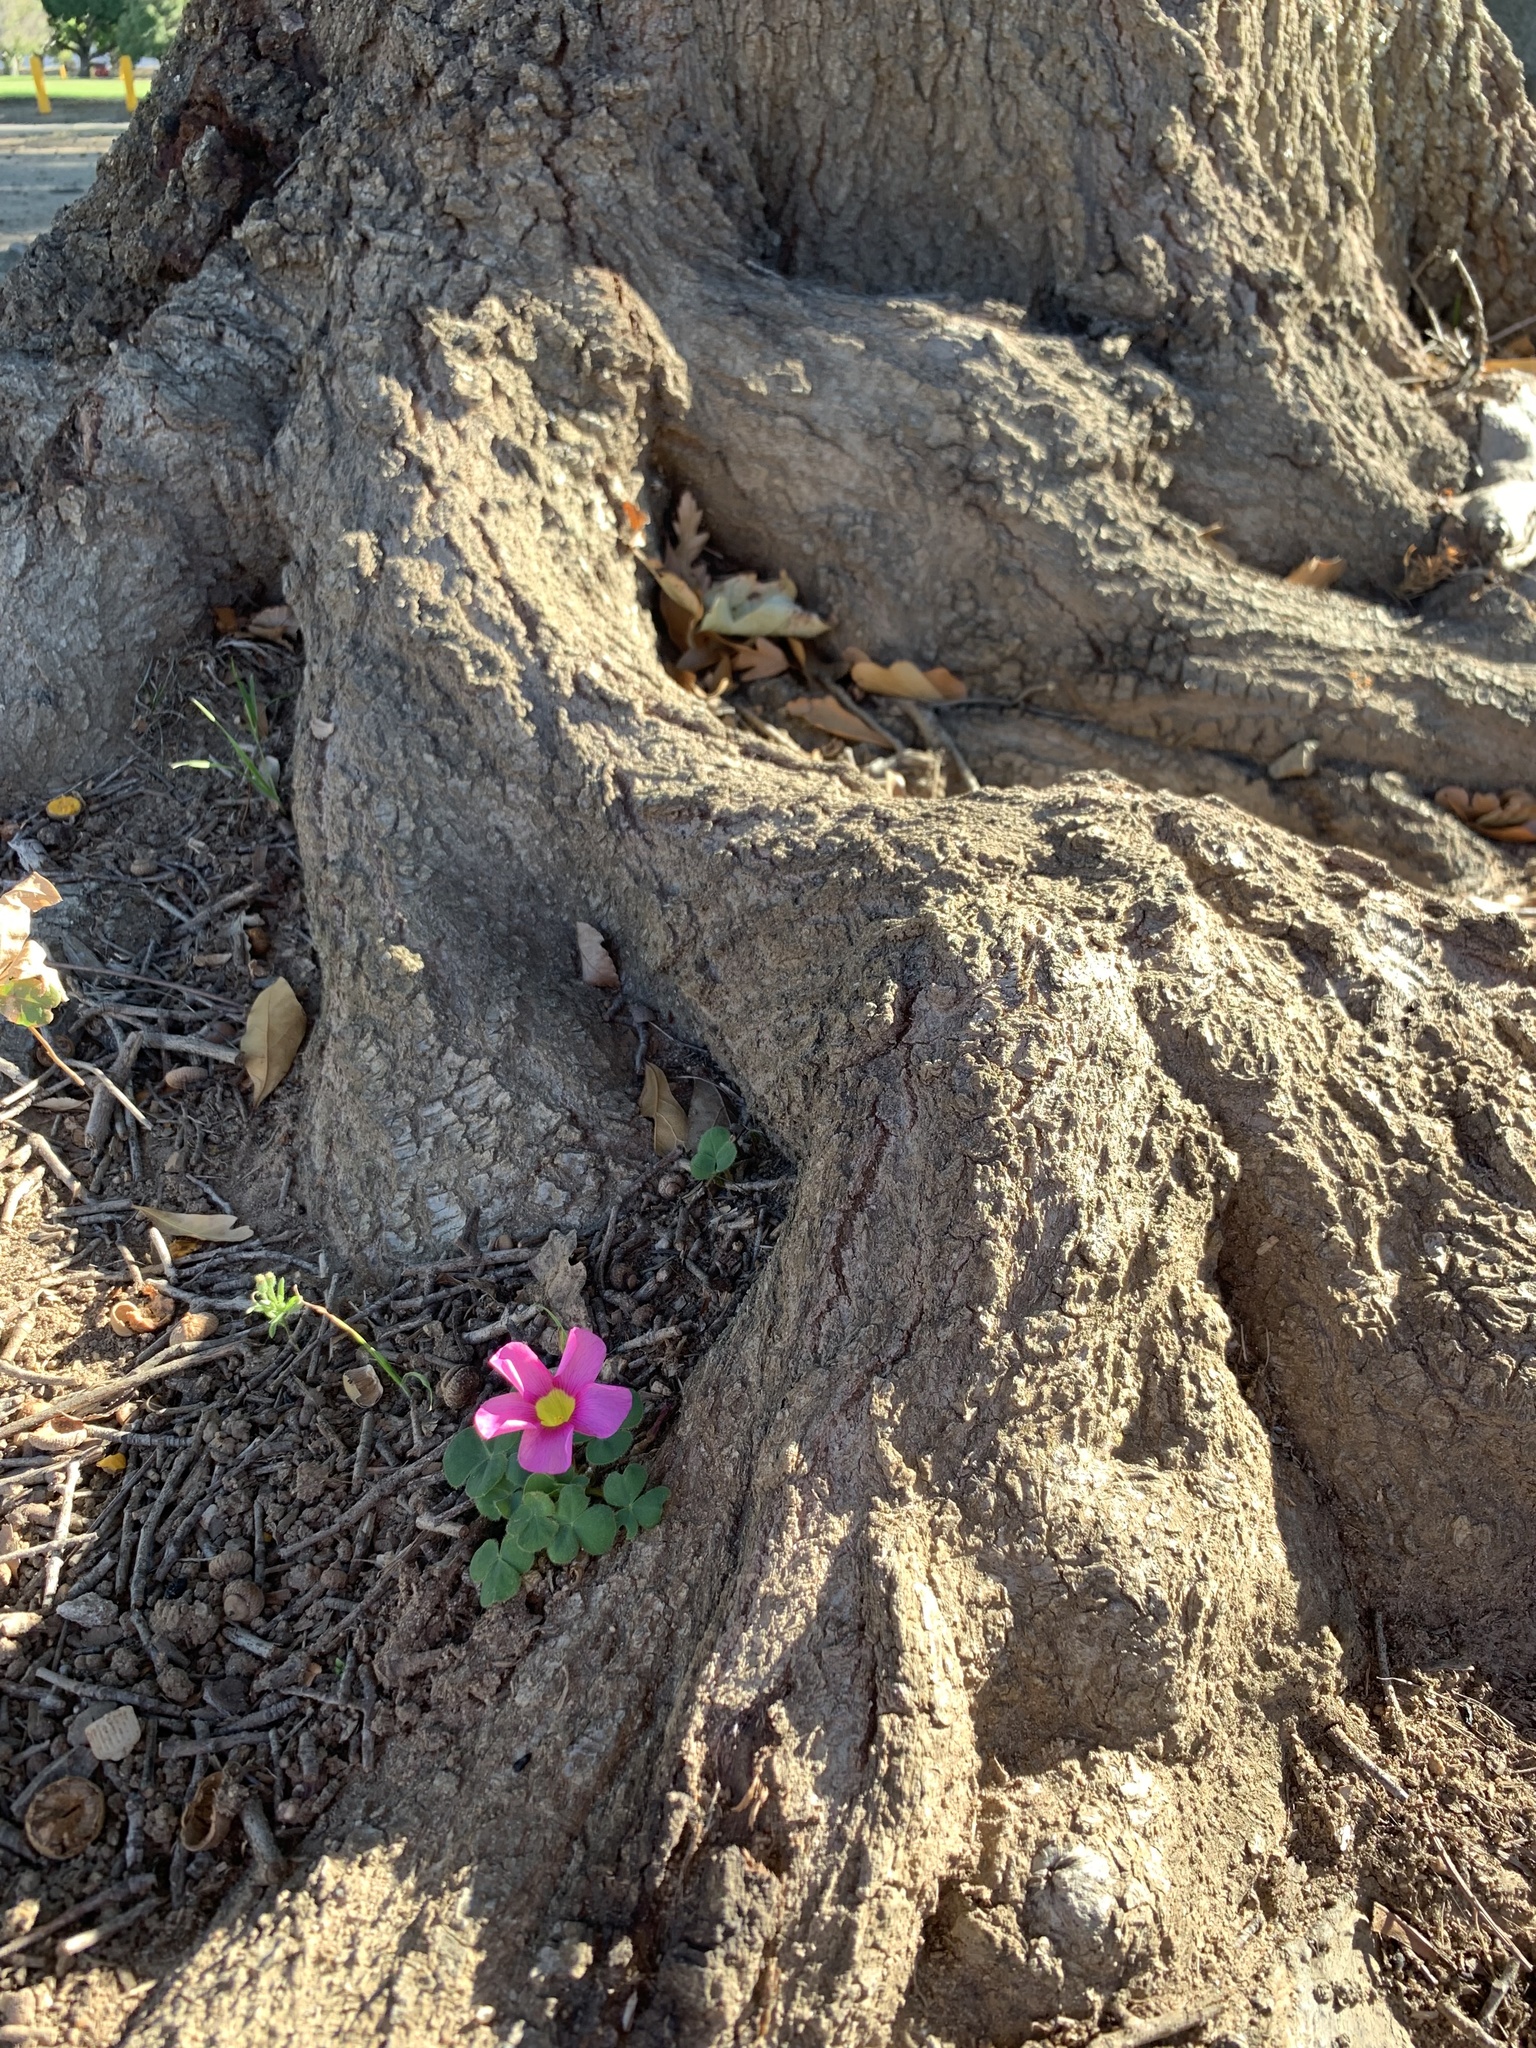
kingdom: Plantae
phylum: Tracheophyta
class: Magnoliopsida
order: Oxalidales
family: Oxalidaceae
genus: Oxalis
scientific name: Oxalis purpurea
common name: Purple woodsorrel
